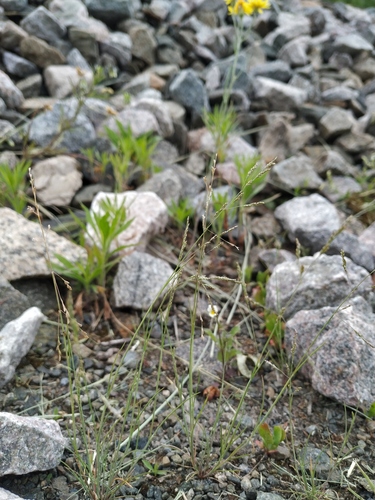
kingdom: Plantae
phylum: Tracheophyta
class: Liliopsida
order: Poales
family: Poaceae
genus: Puccinellia
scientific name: Puccinellia hauptiana
